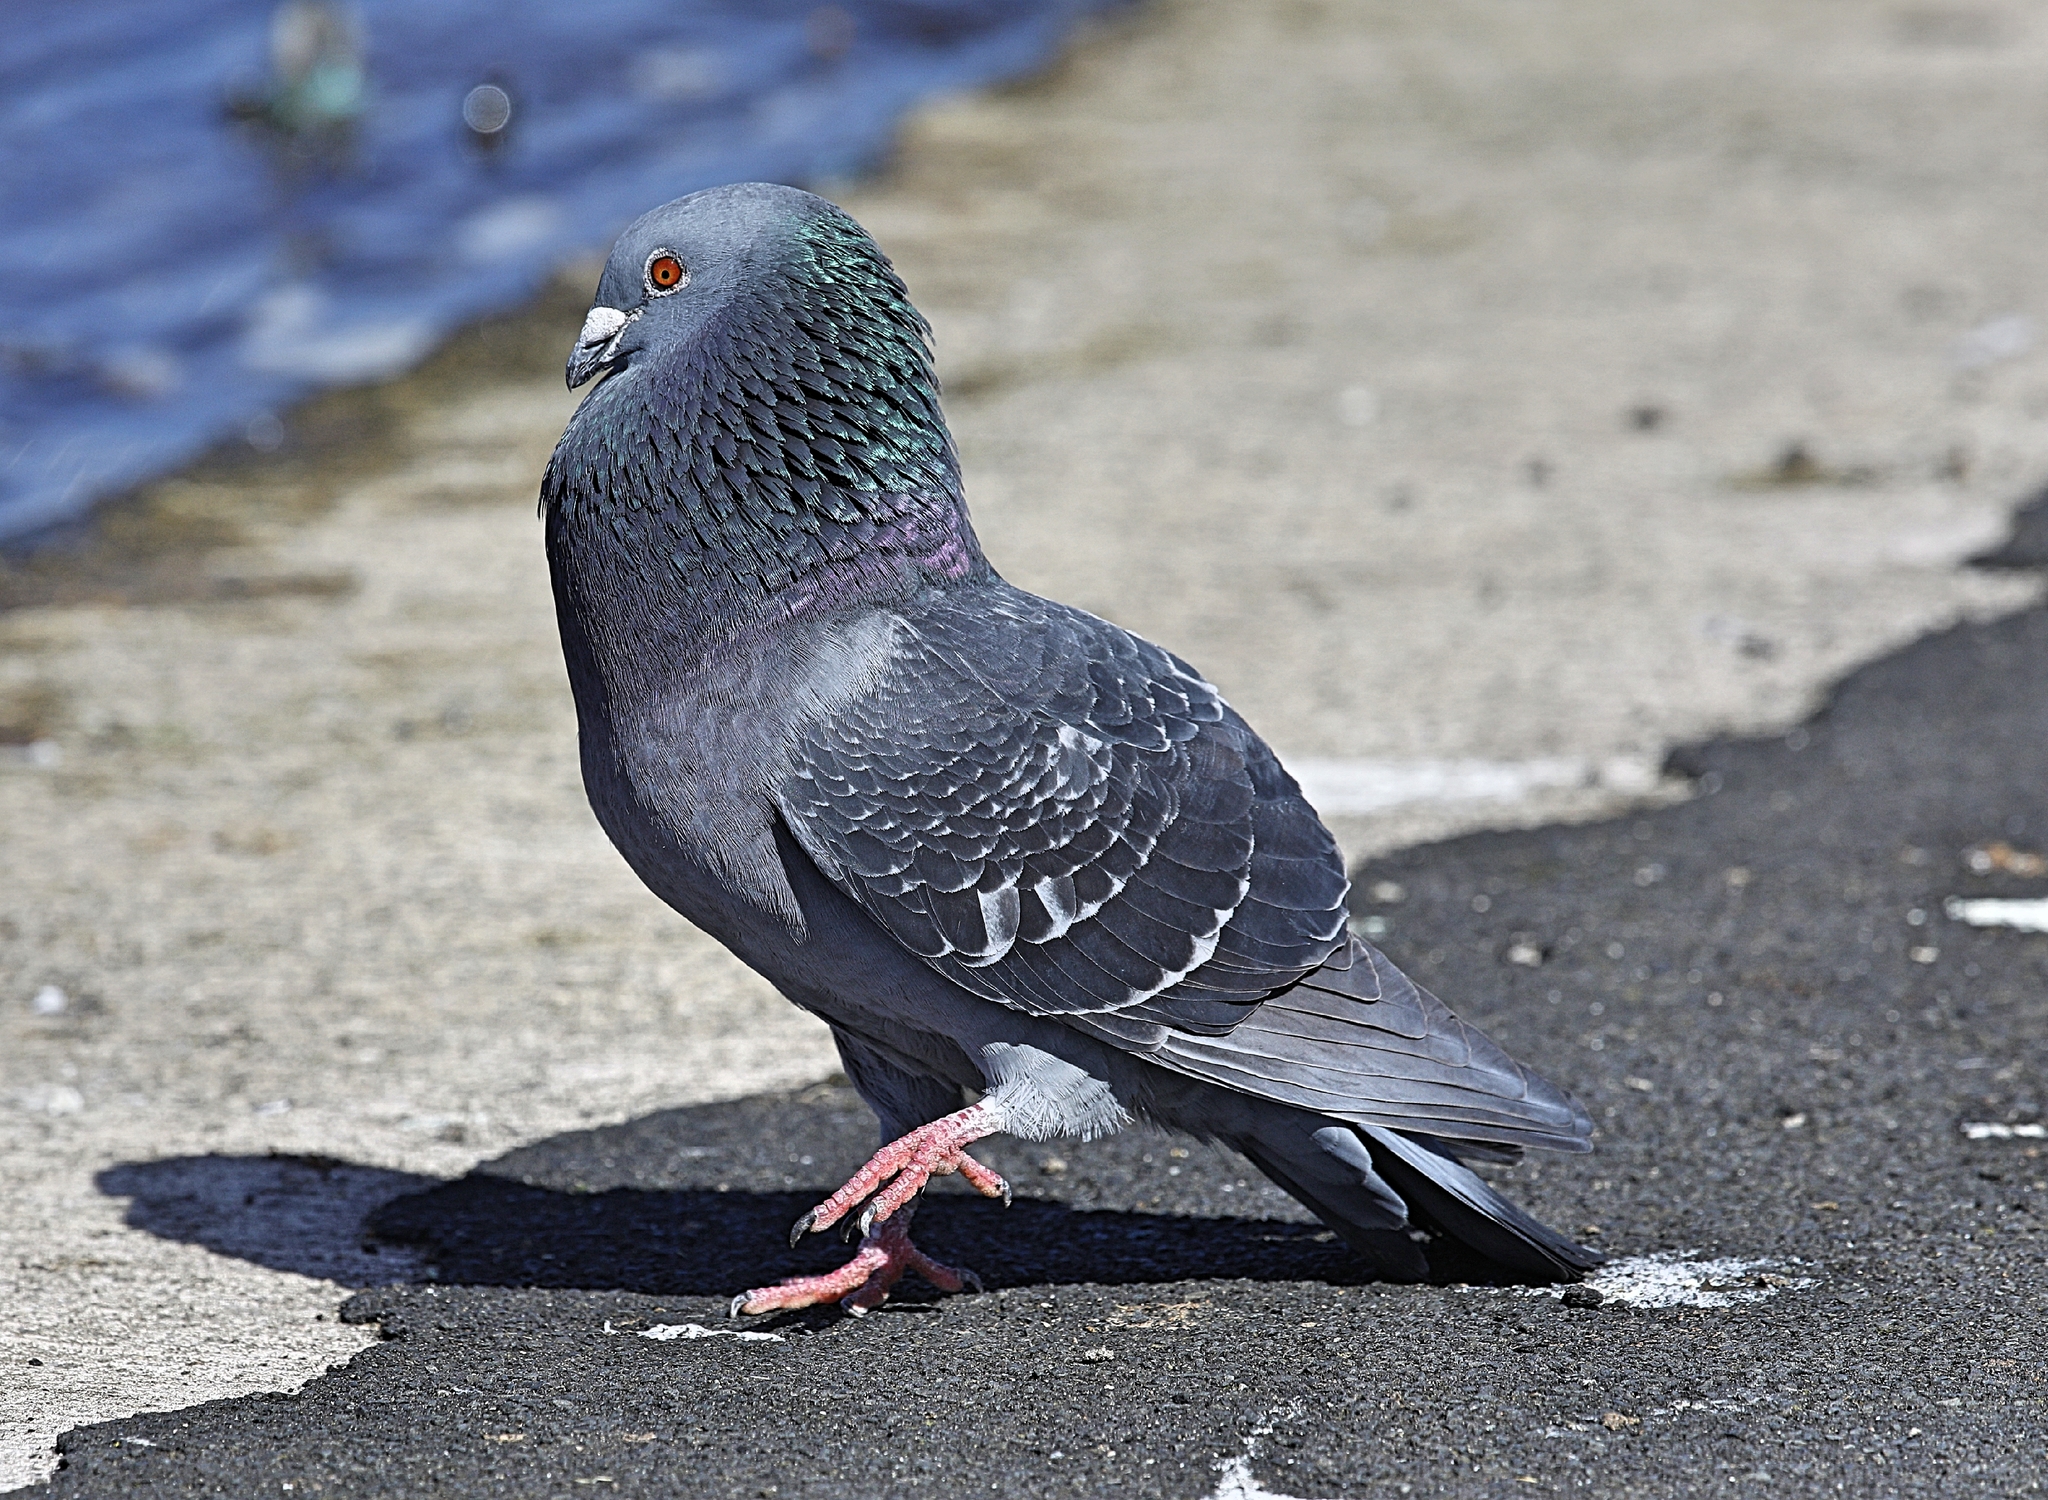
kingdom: Animalia
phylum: Chordata
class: Aves
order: Columbiformes
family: Columbidae
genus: Columba
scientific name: Columba livia
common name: Rock pigeon
